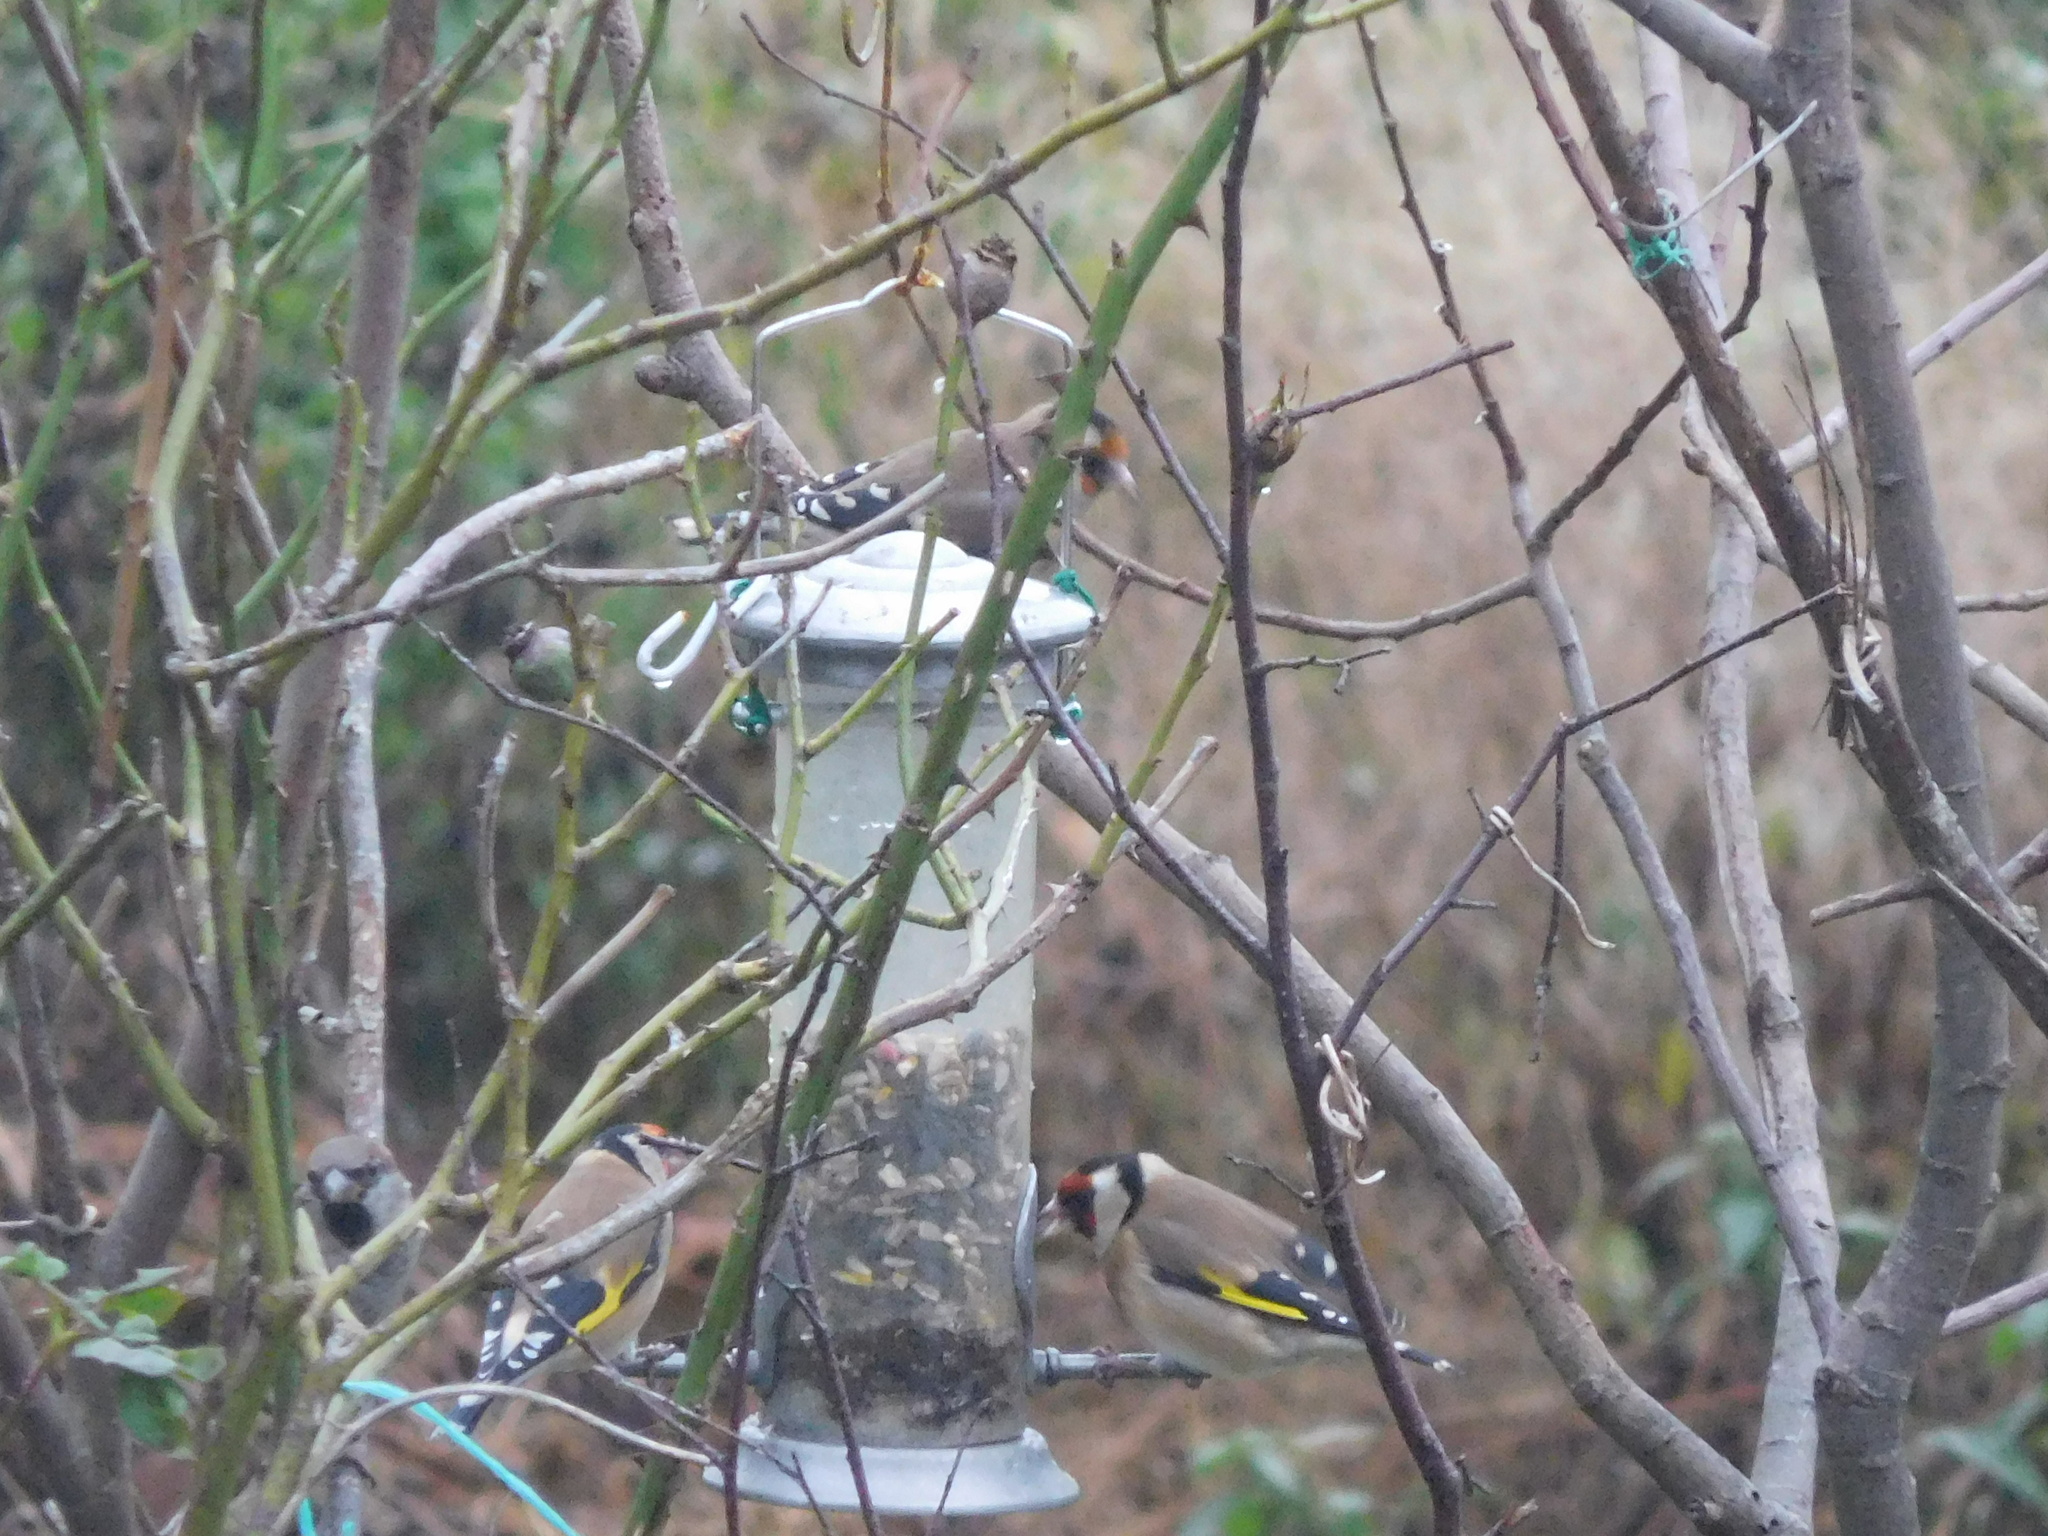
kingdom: Animalia
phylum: Chordata
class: Aves
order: Passeriformes
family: Fringillidae
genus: Carduelis
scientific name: Carduelis carduelis
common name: European goldfinch
